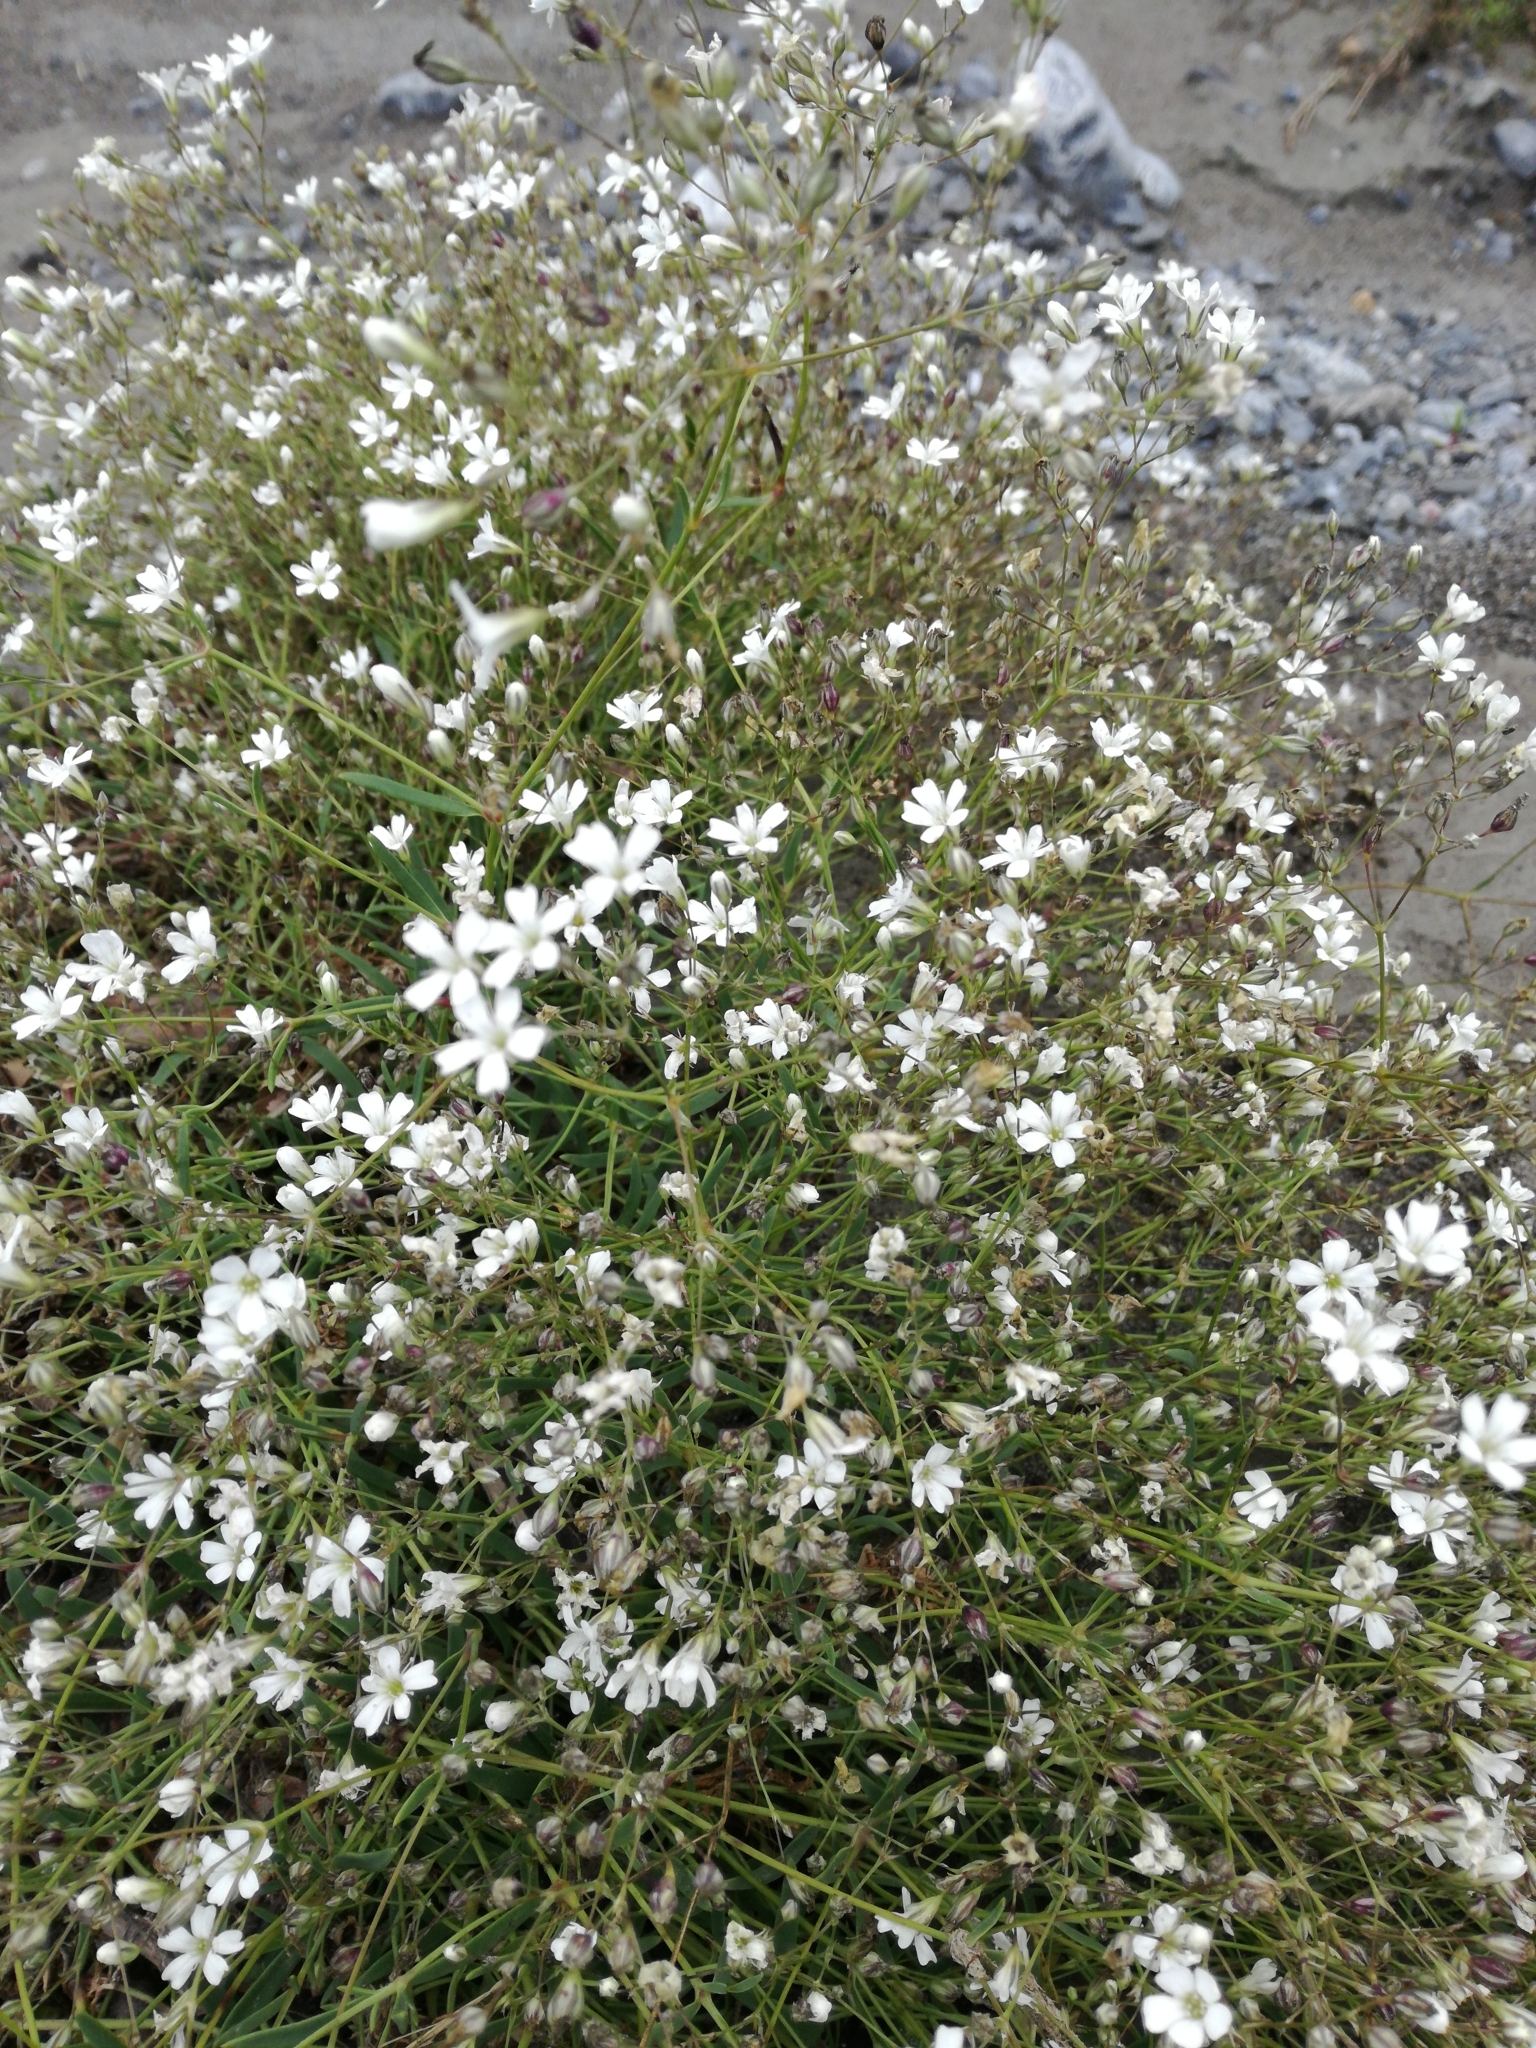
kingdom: Plantae
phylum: Tracheophyta
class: Magnoliopsida
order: Caryophyllales
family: Caryophyllaceae
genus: Gypsophila
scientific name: Gypsophila repens
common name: Creeping baby's-breath
